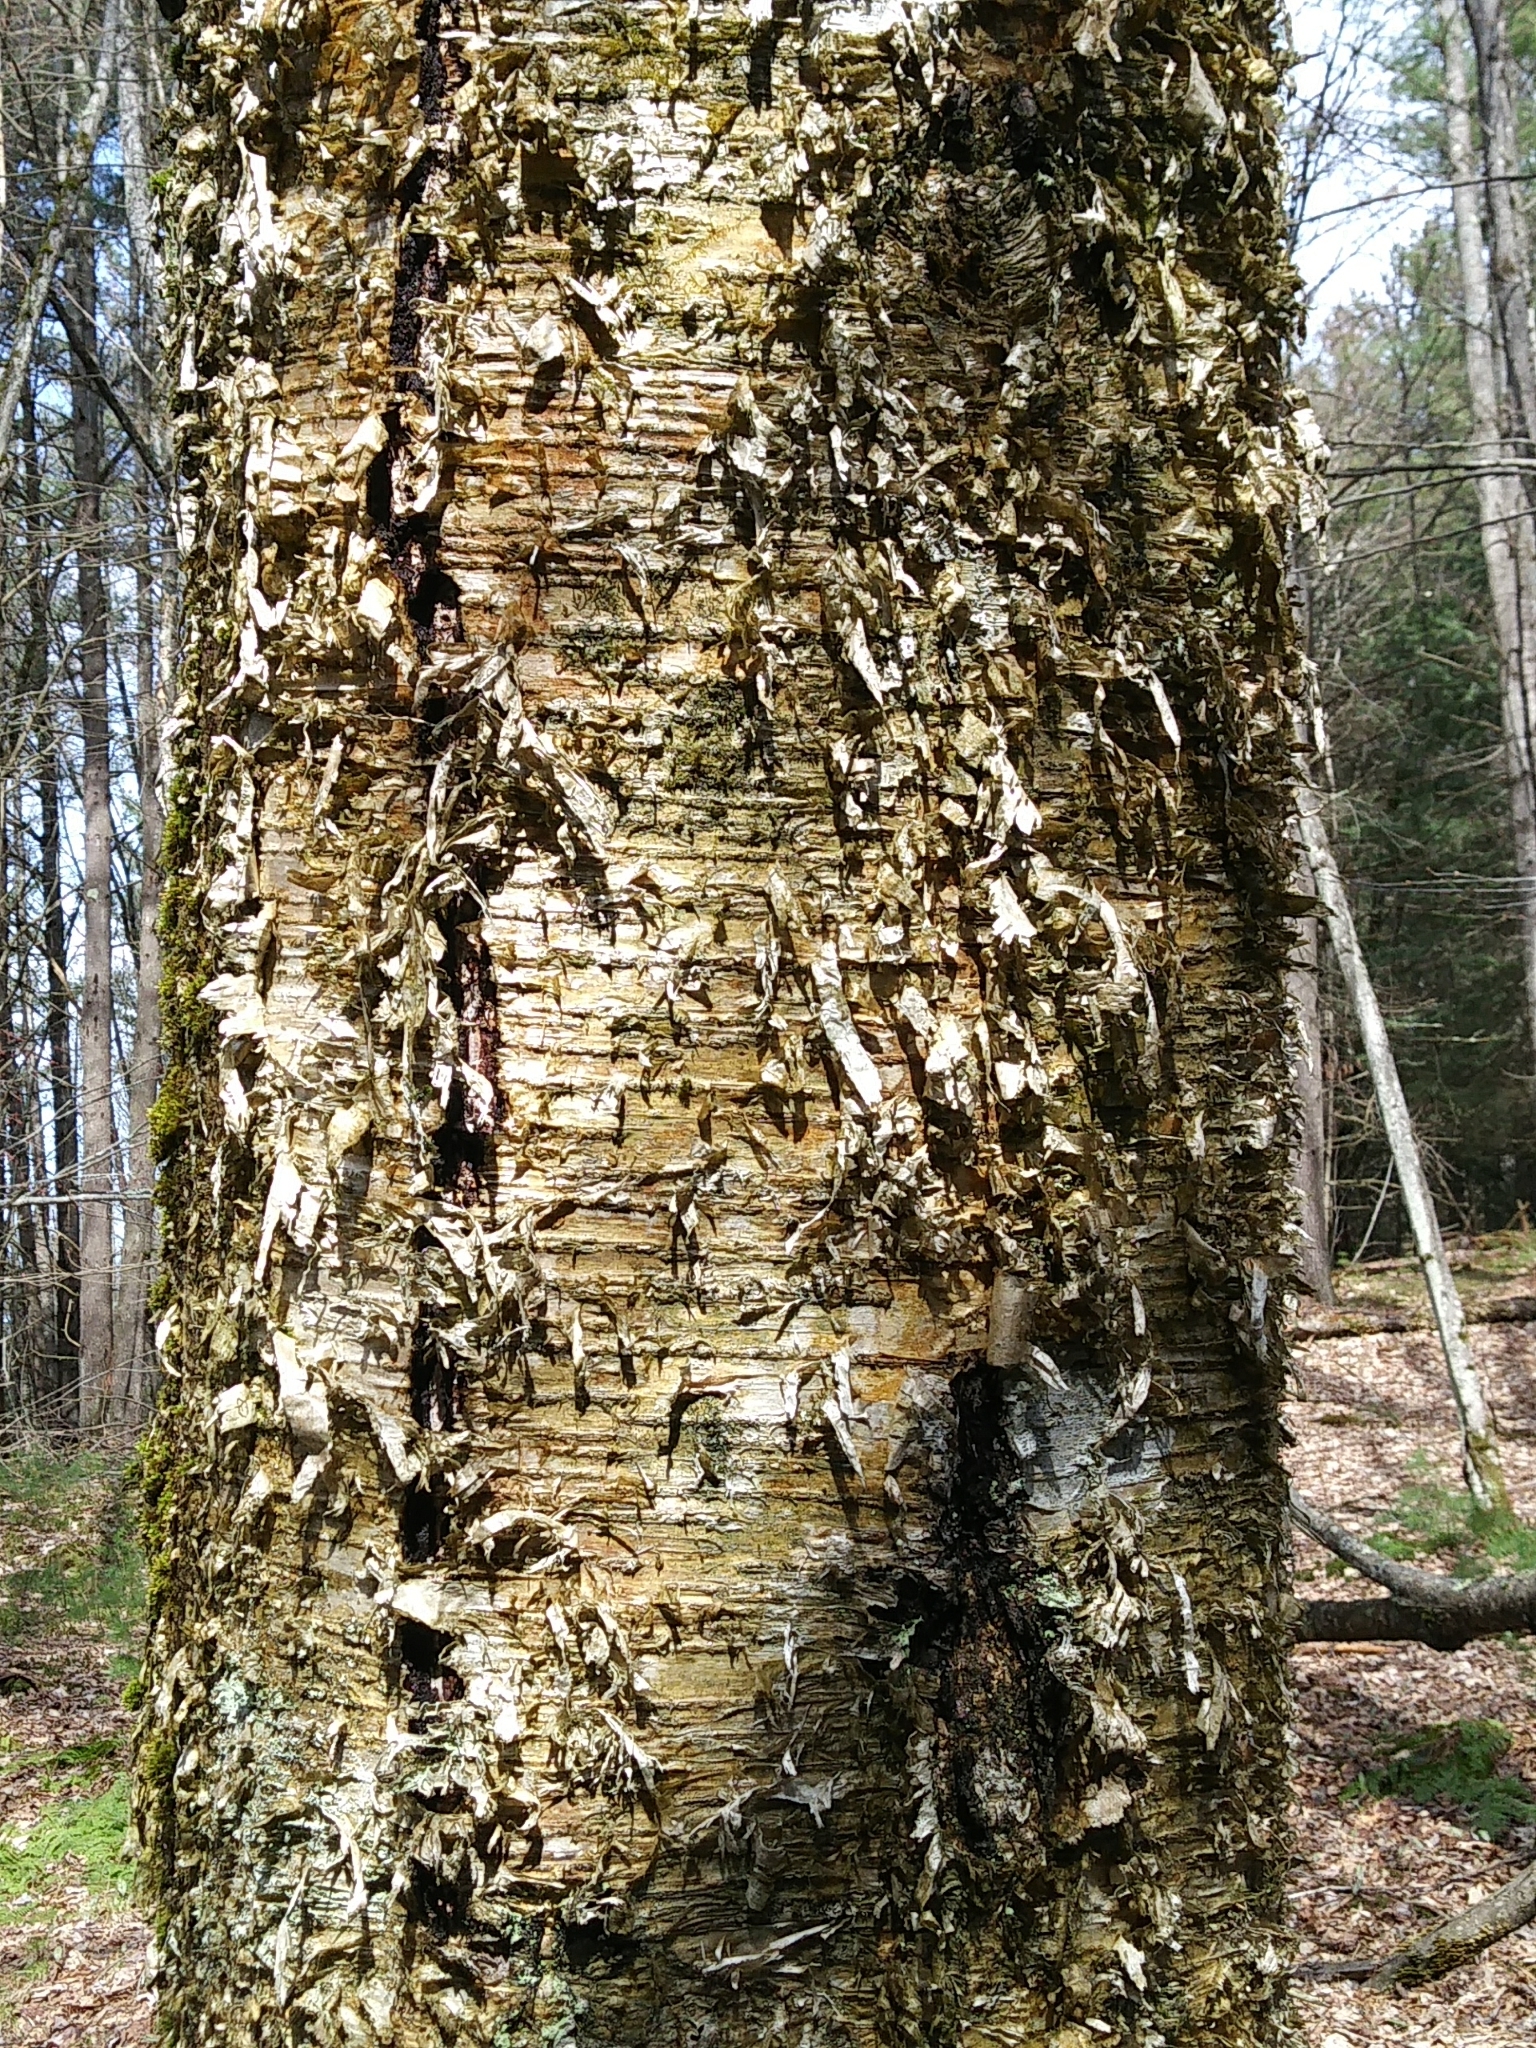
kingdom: Plantae
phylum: Tracheophyta
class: Magnoliopsida
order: Fagales
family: Betulaceae
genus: Betula
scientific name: Betula alleghaniensis
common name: Yellow birch
